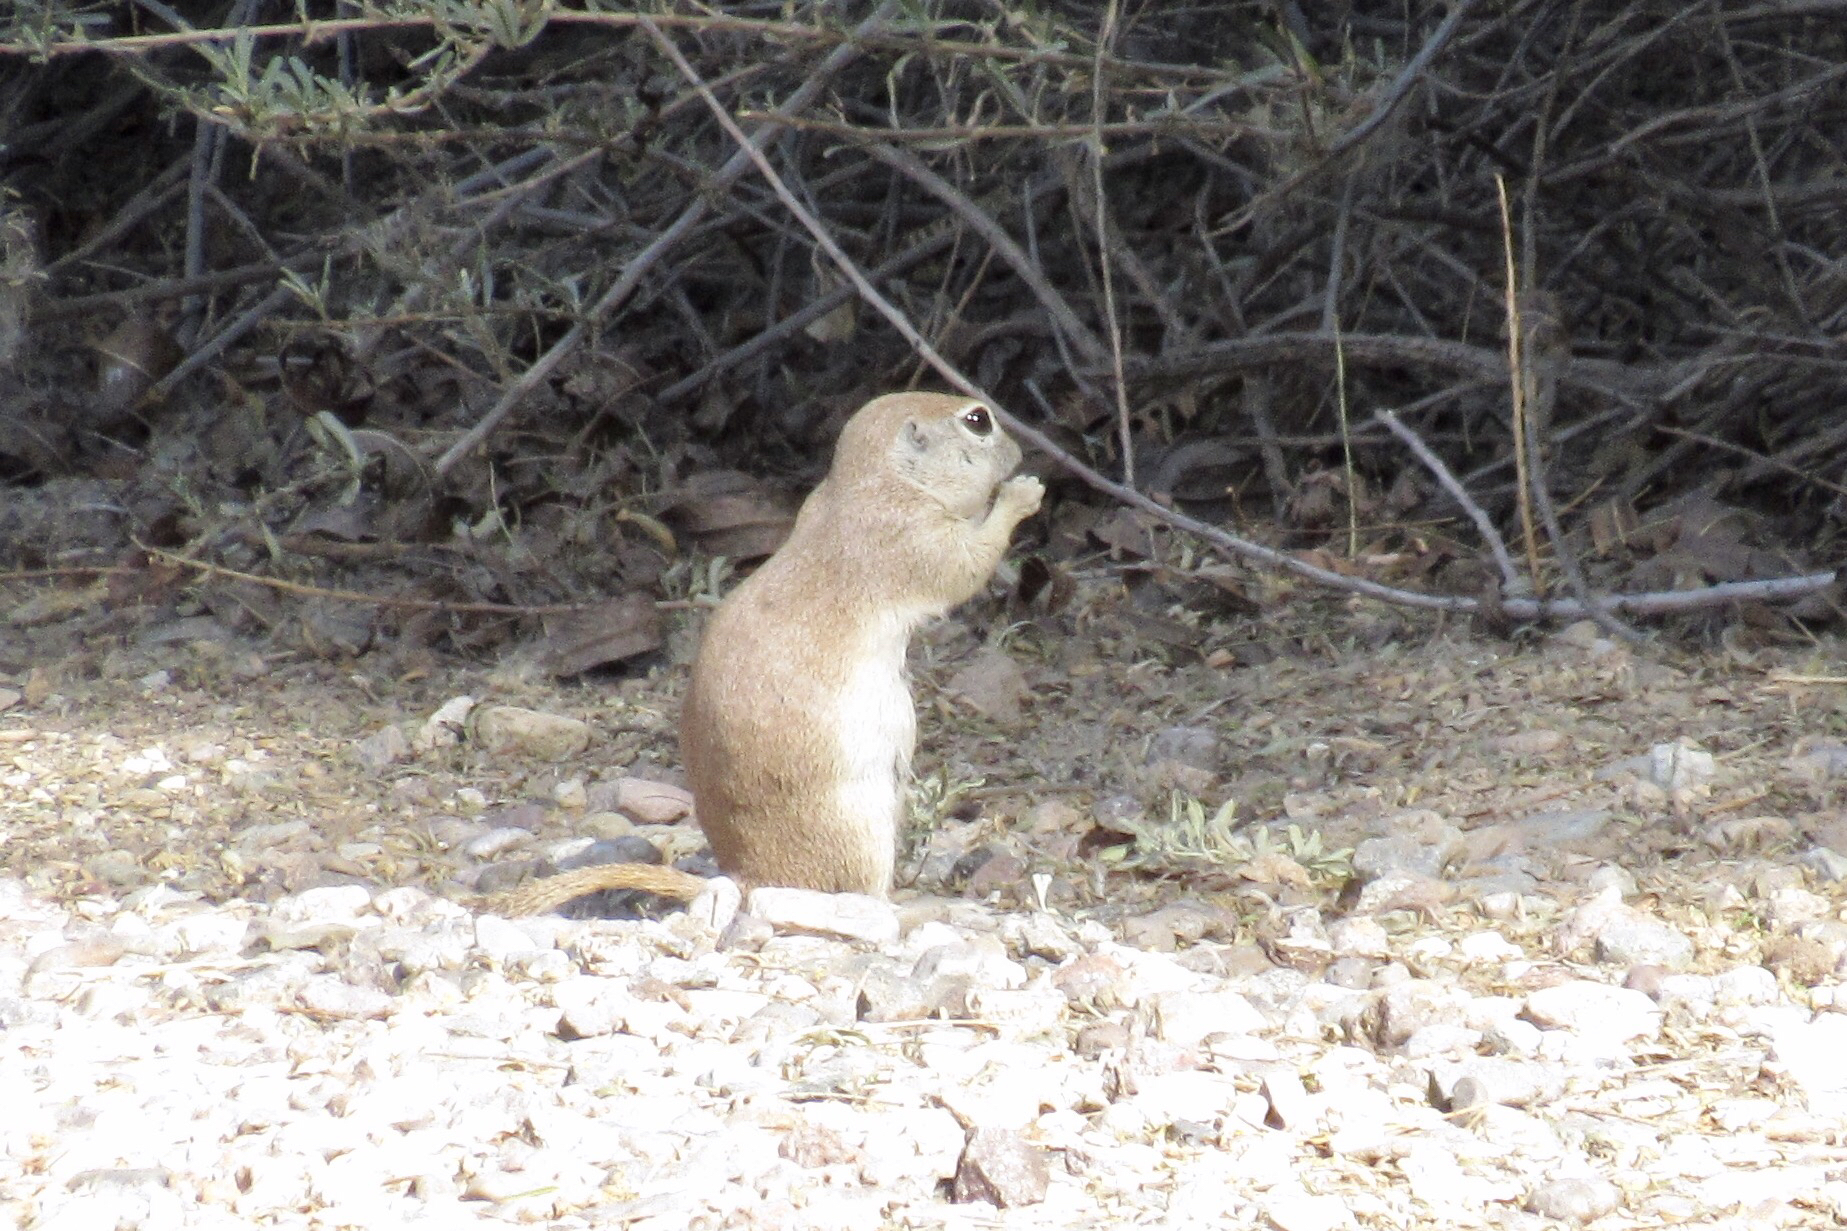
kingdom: Animalia
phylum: Chordata
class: Mammalia
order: Rodentia
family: Sciuridae
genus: Xerospermophilus
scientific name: Xerospermophilus tereticaudus
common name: Round-tailed ground squirrel
